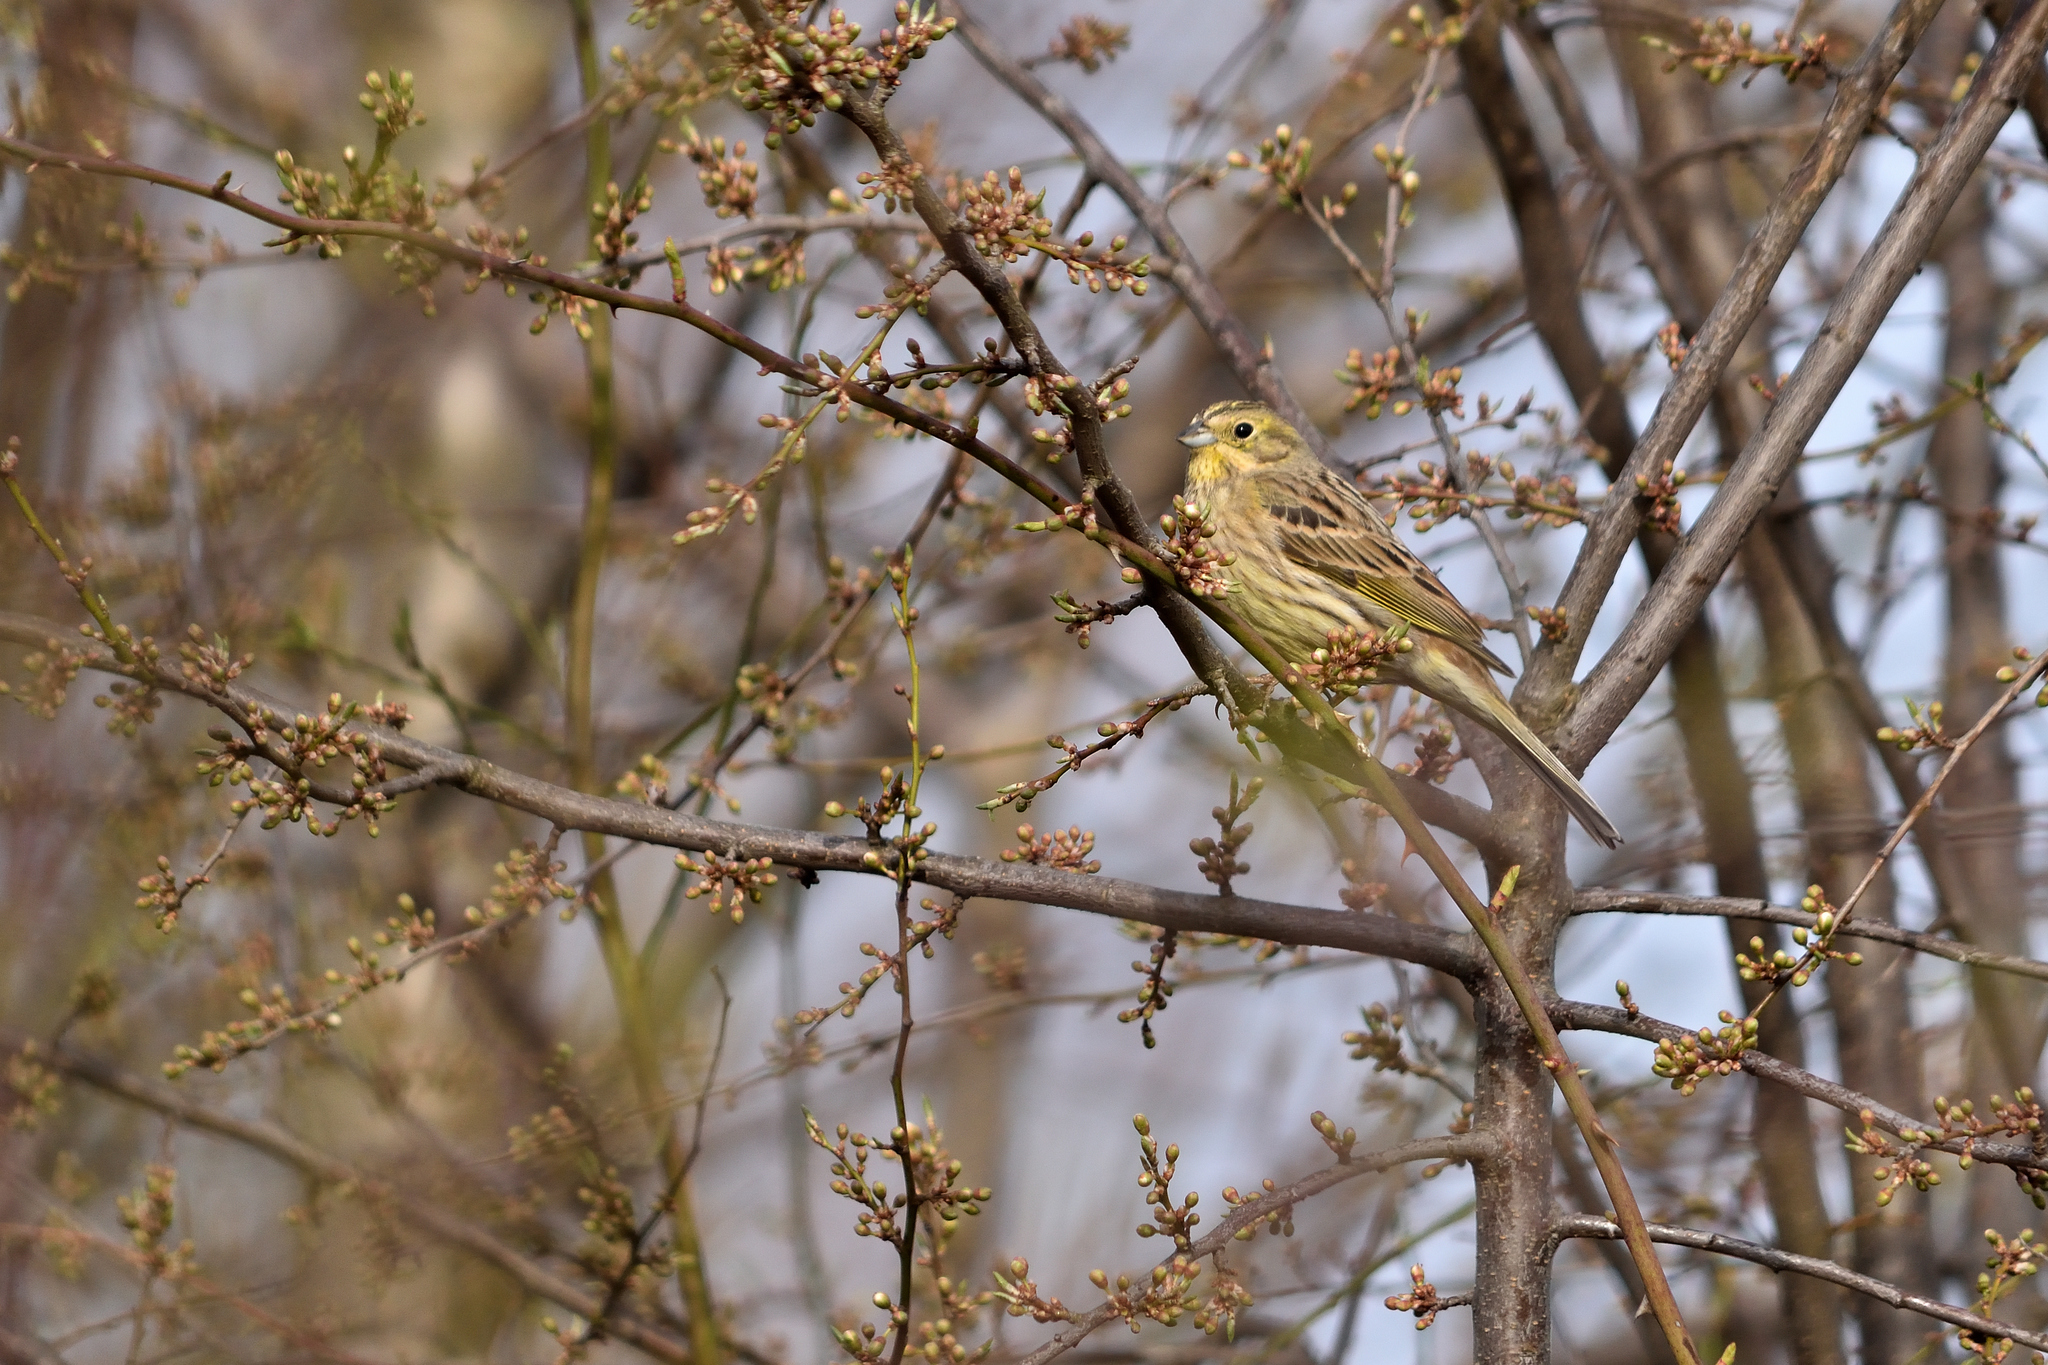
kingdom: Animalia
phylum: Chordata
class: Aves
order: Passeriformes
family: Emberizidae
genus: Emberiza
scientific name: Emberiza citrinella
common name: Yellowhammer
